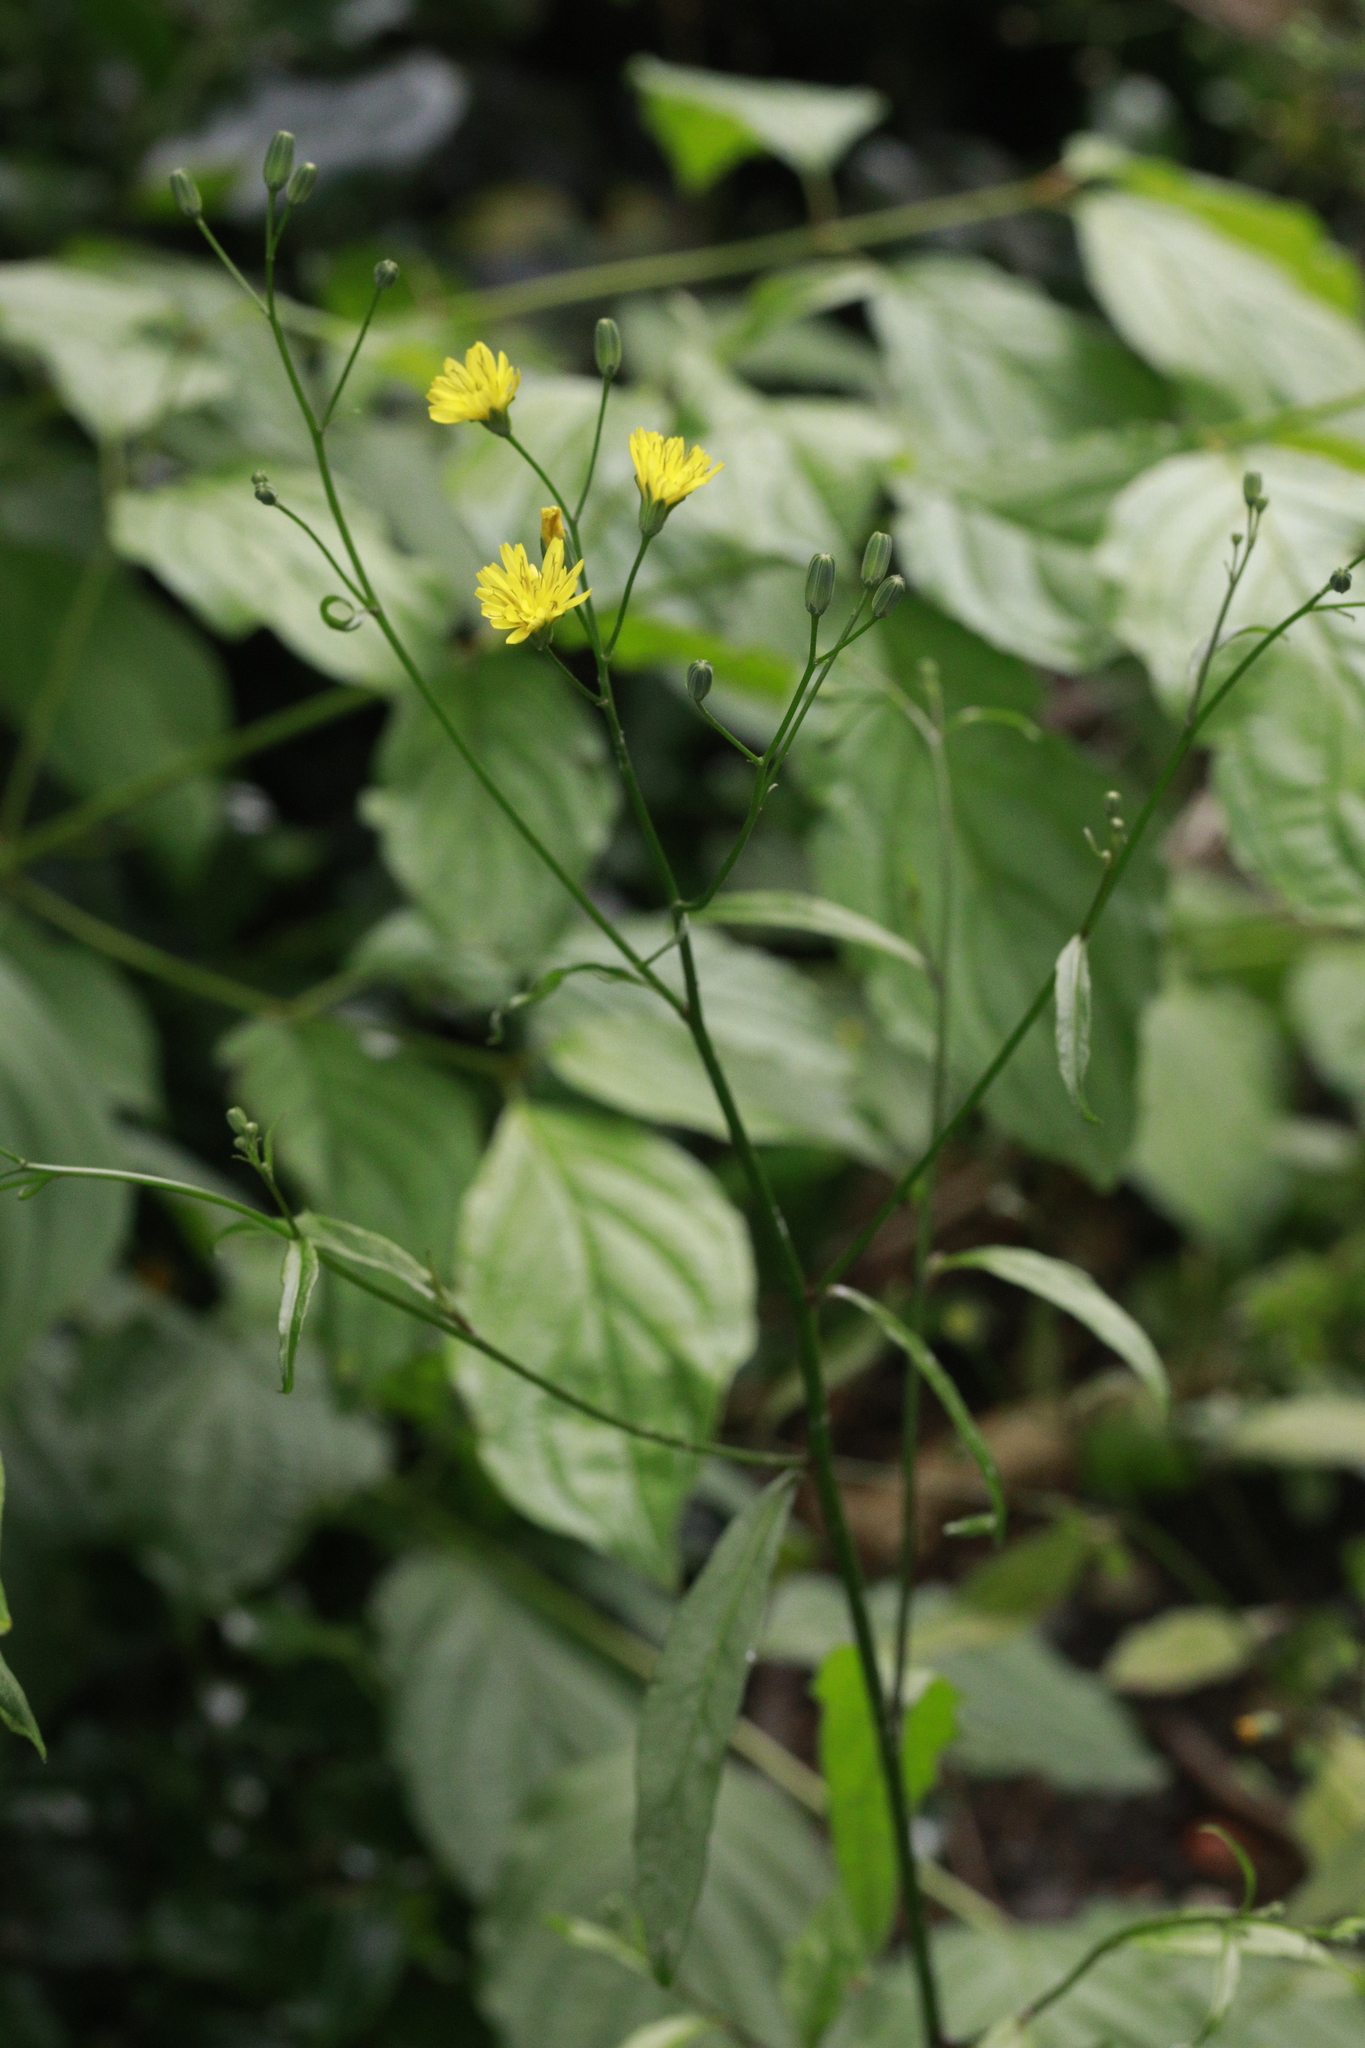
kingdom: Plantae
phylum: Tracheophyta
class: Magnoliopsida
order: Asterales
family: Asteraceae
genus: Lapsana
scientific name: Lapsana communis
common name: Nipplewort
